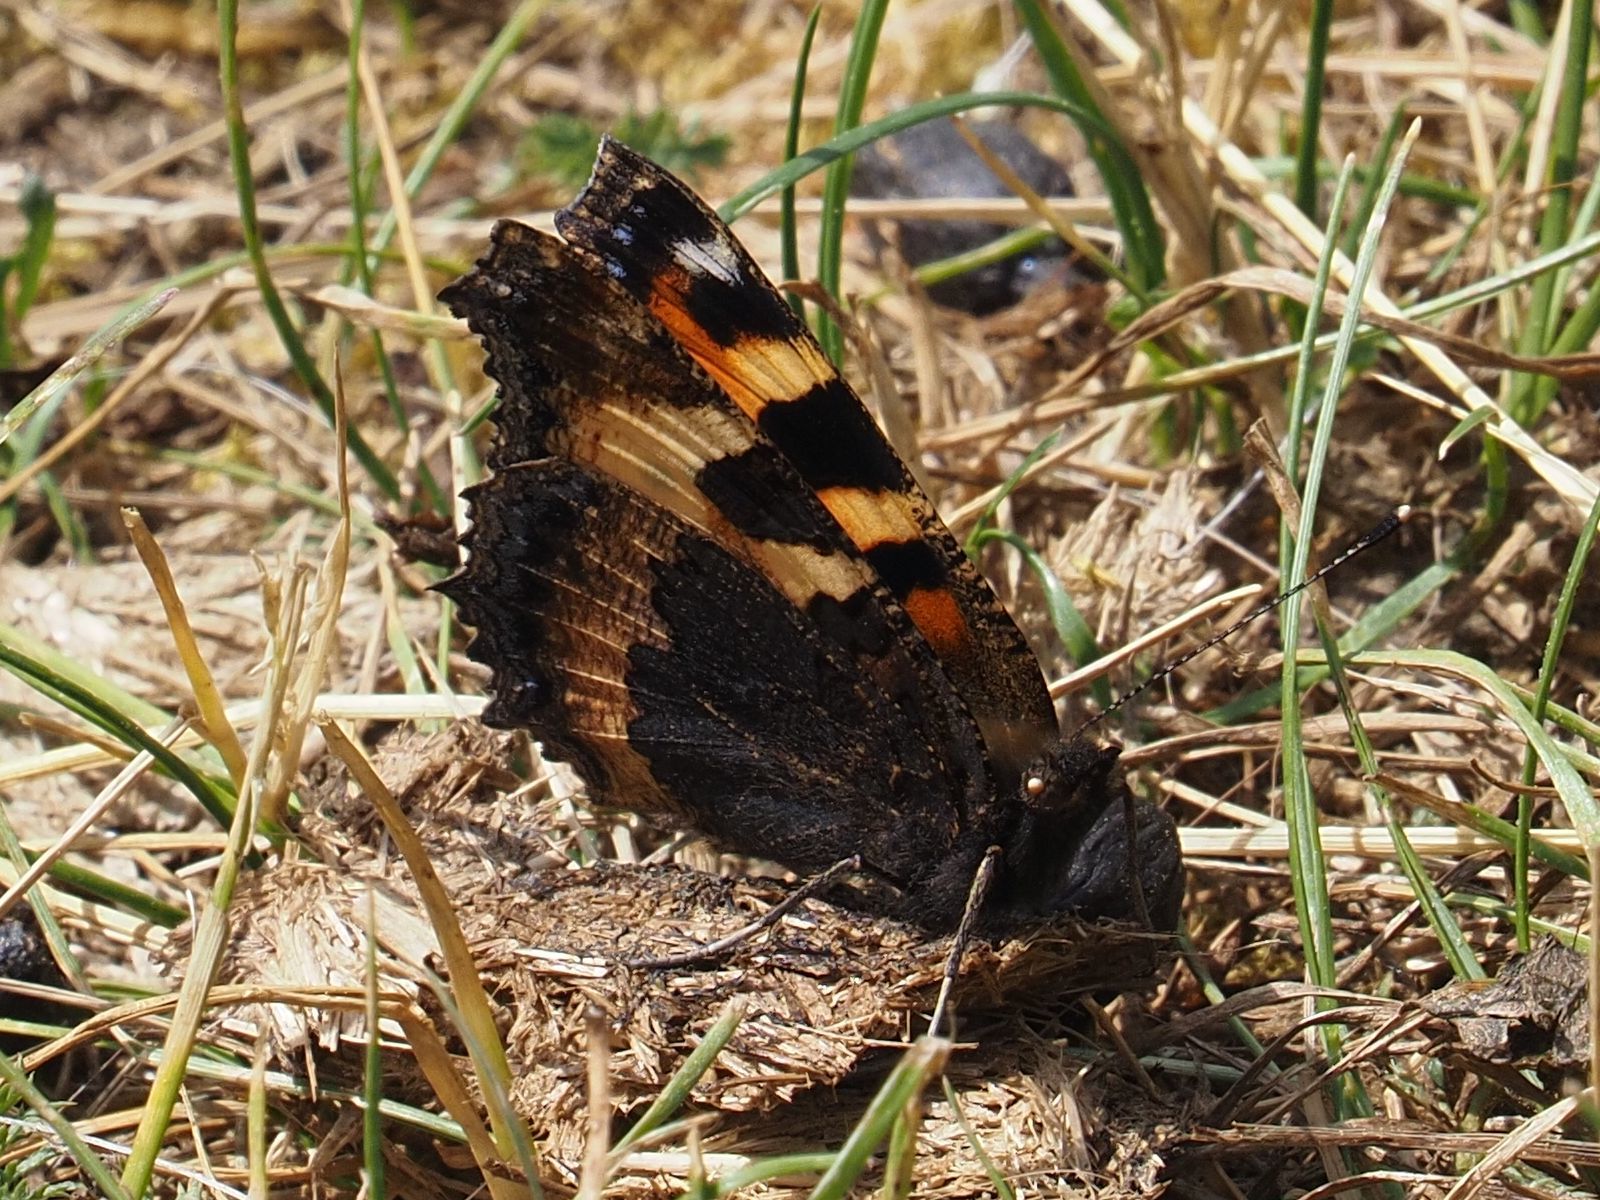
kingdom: Animalia
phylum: Arthropoda
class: Insecta
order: Lepidoptera
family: Nymphalidae
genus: Aglais
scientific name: Aglais urticae
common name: Small tortoiseshell
